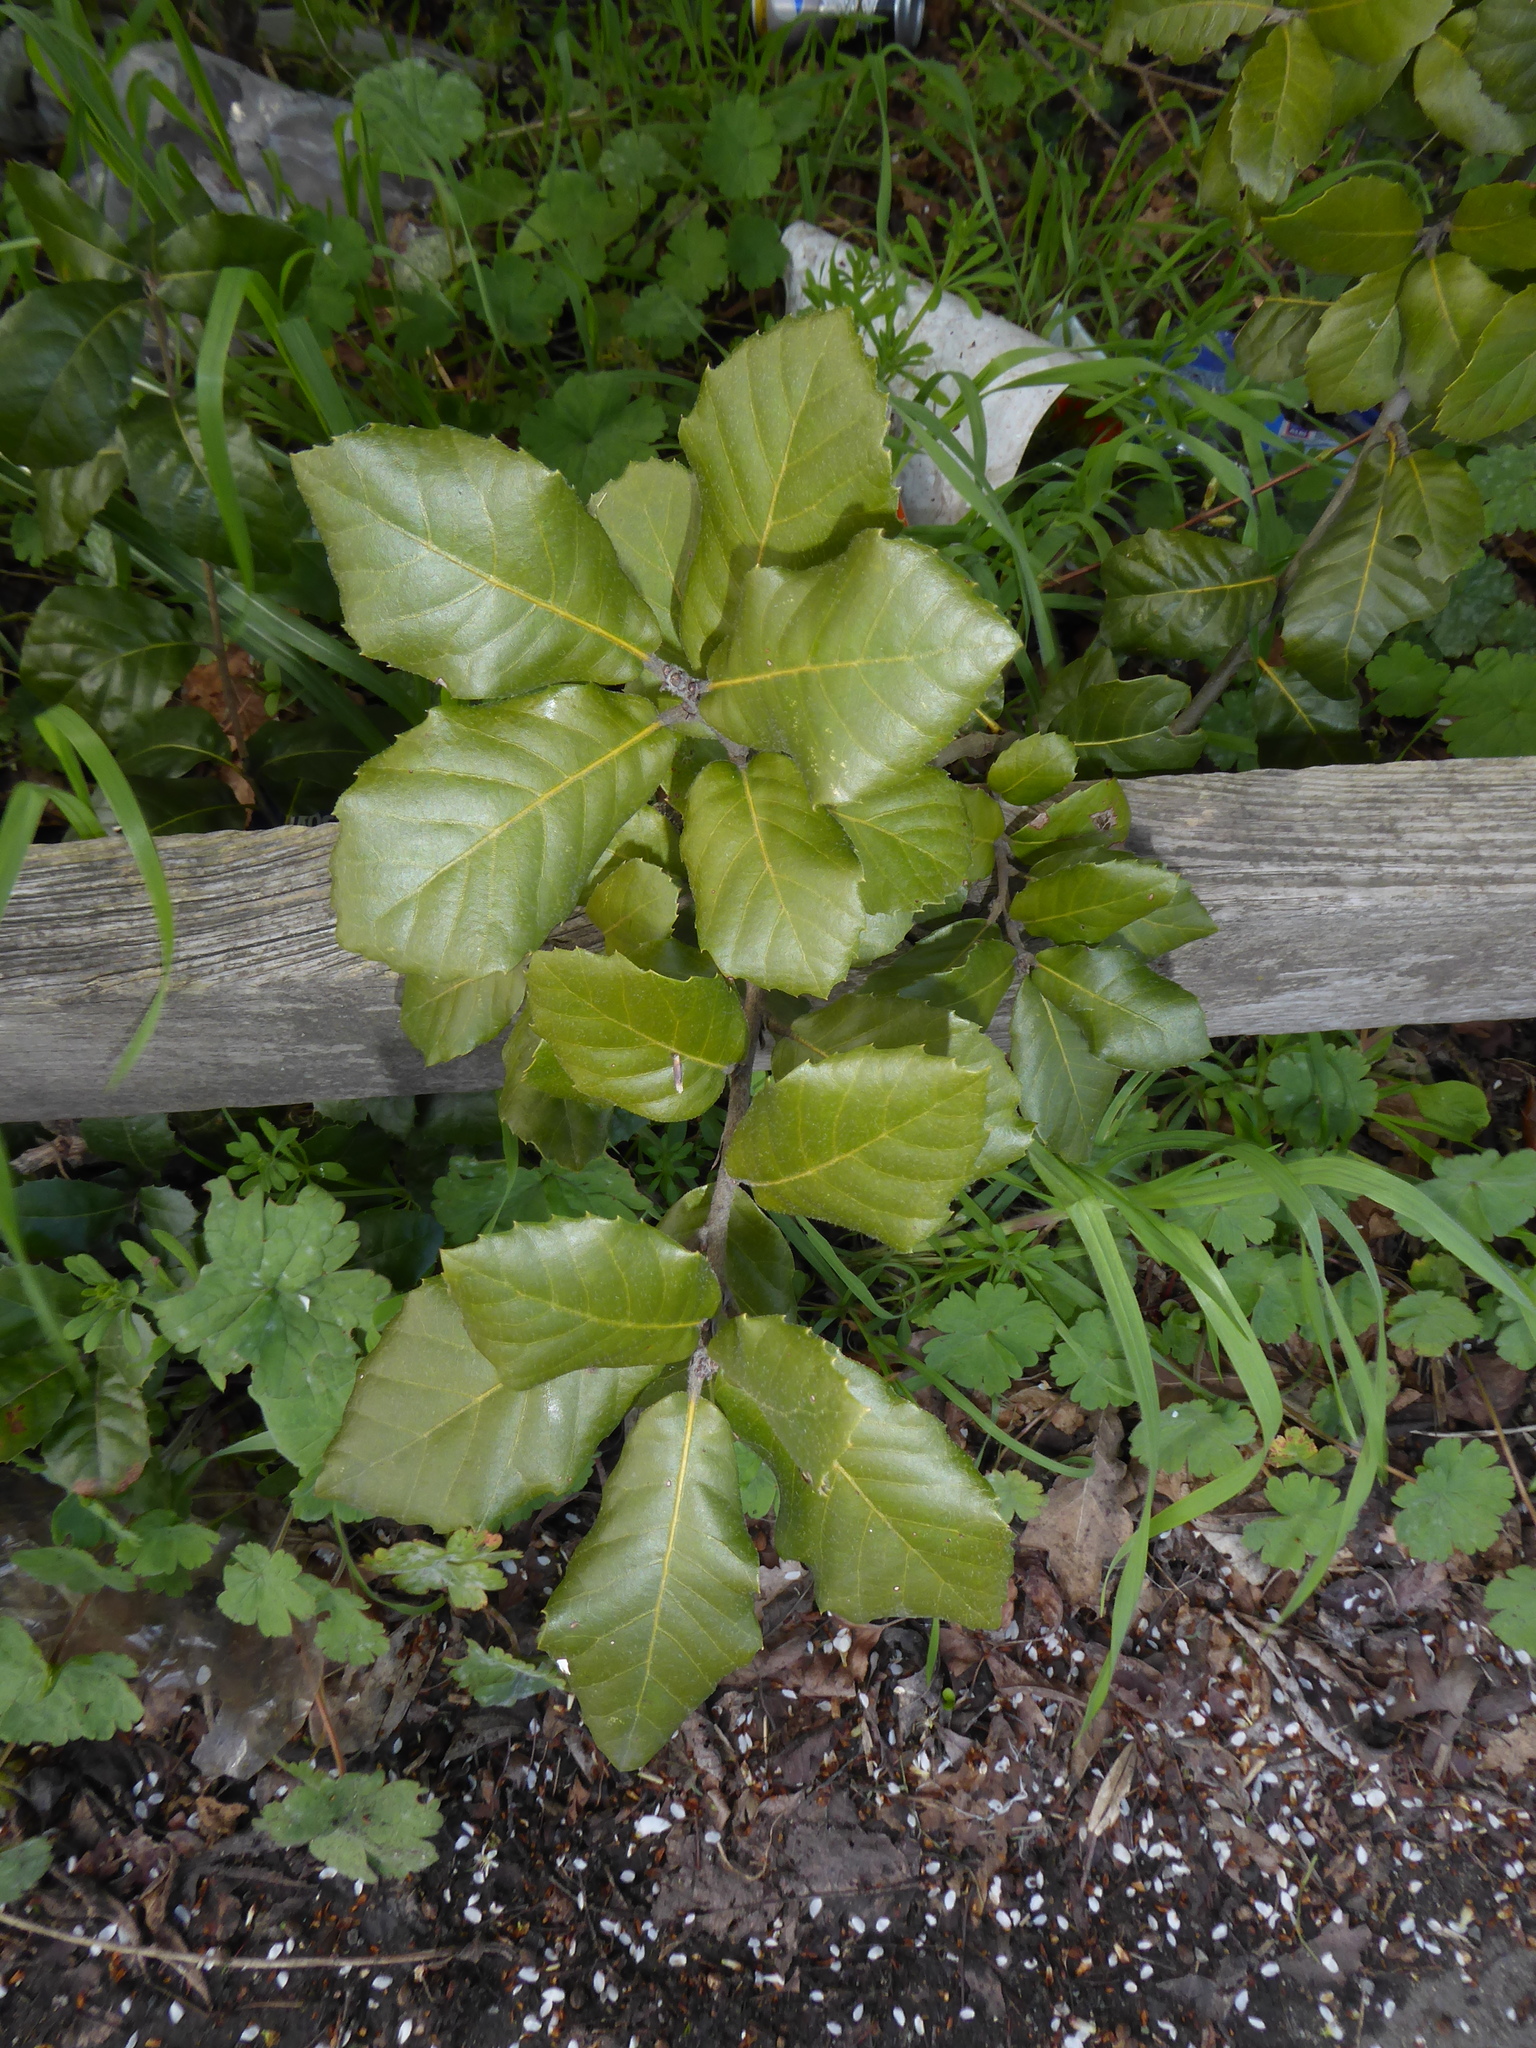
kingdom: Plantae
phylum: Tracheophyta
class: Magnoliopsida
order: Fagales
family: Fagaceae
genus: Quercus
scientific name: Quercus ilex
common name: Evergreen oak
